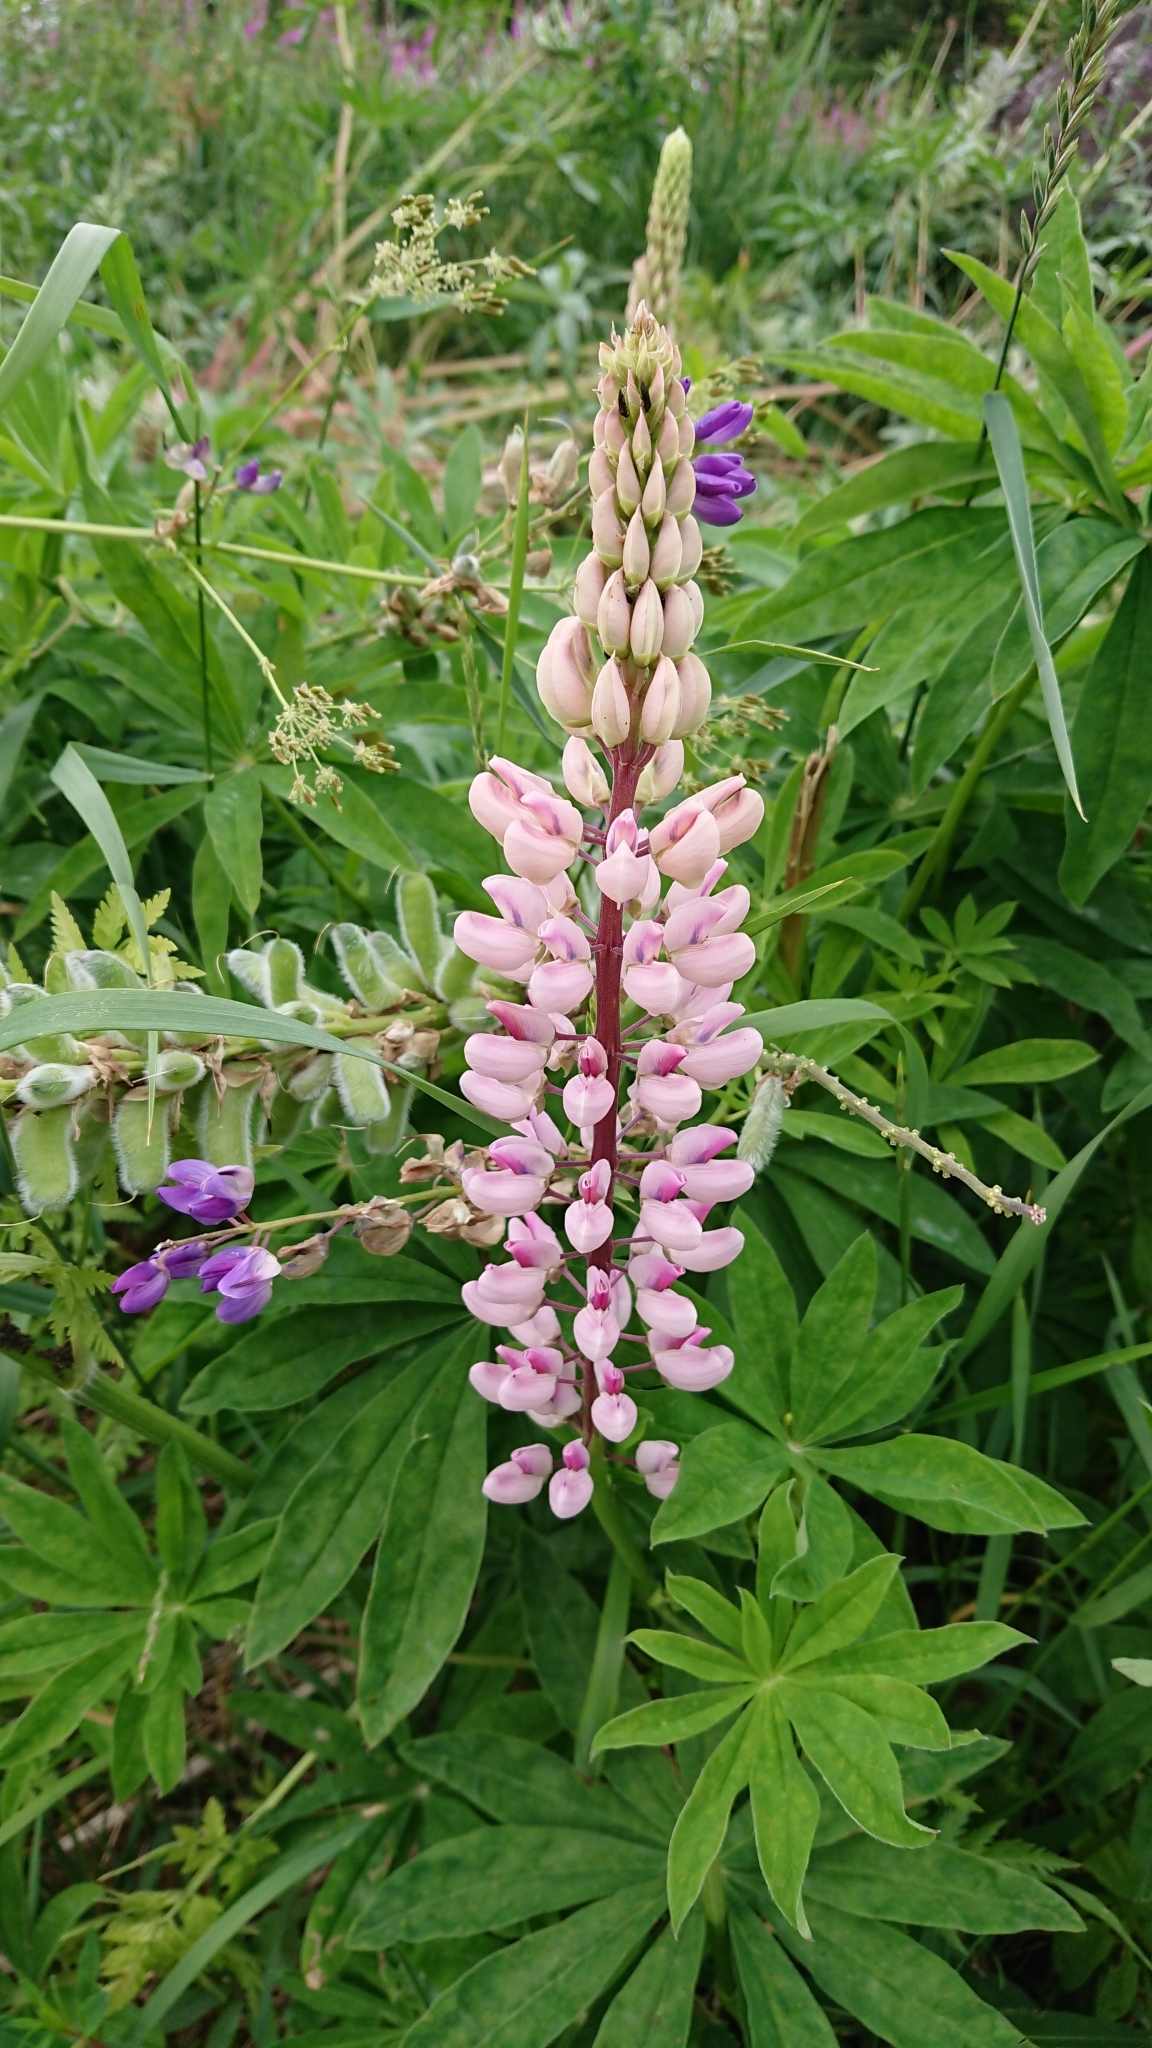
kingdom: Plantae
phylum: Tracheophyta
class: Magnoliopsida
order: Fabales
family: Fabaceae
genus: Lupinus
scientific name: Lupinus polyphyllus
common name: Garden lupin
